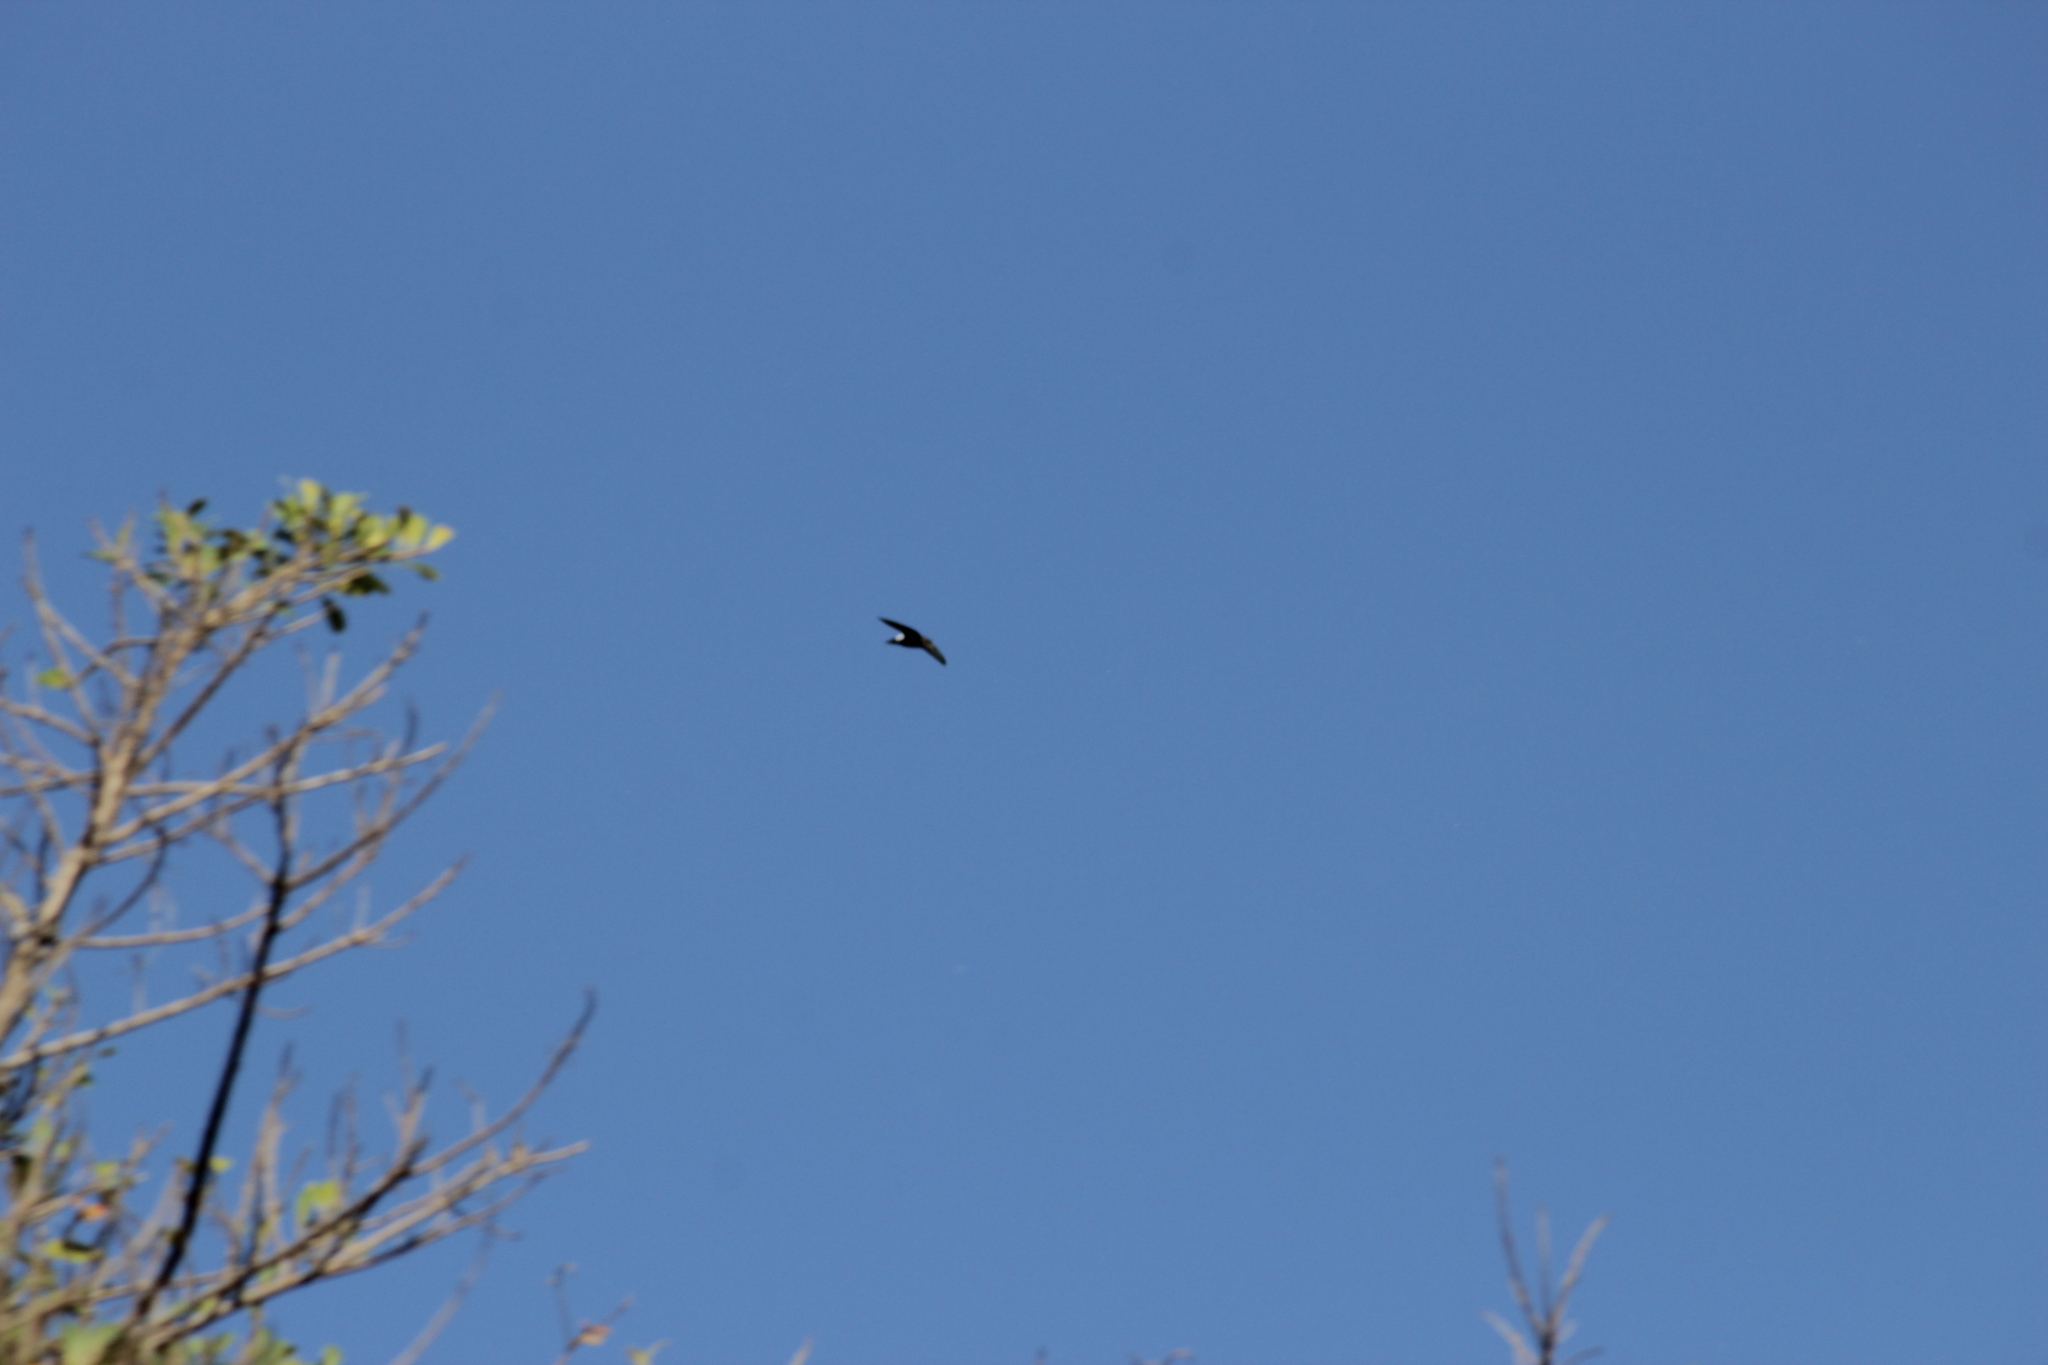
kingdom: Animalia
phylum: Chordata
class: Aves
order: Apodiformes
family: Apodidae
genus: Apus
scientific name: Apus affinis
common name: Little swift
